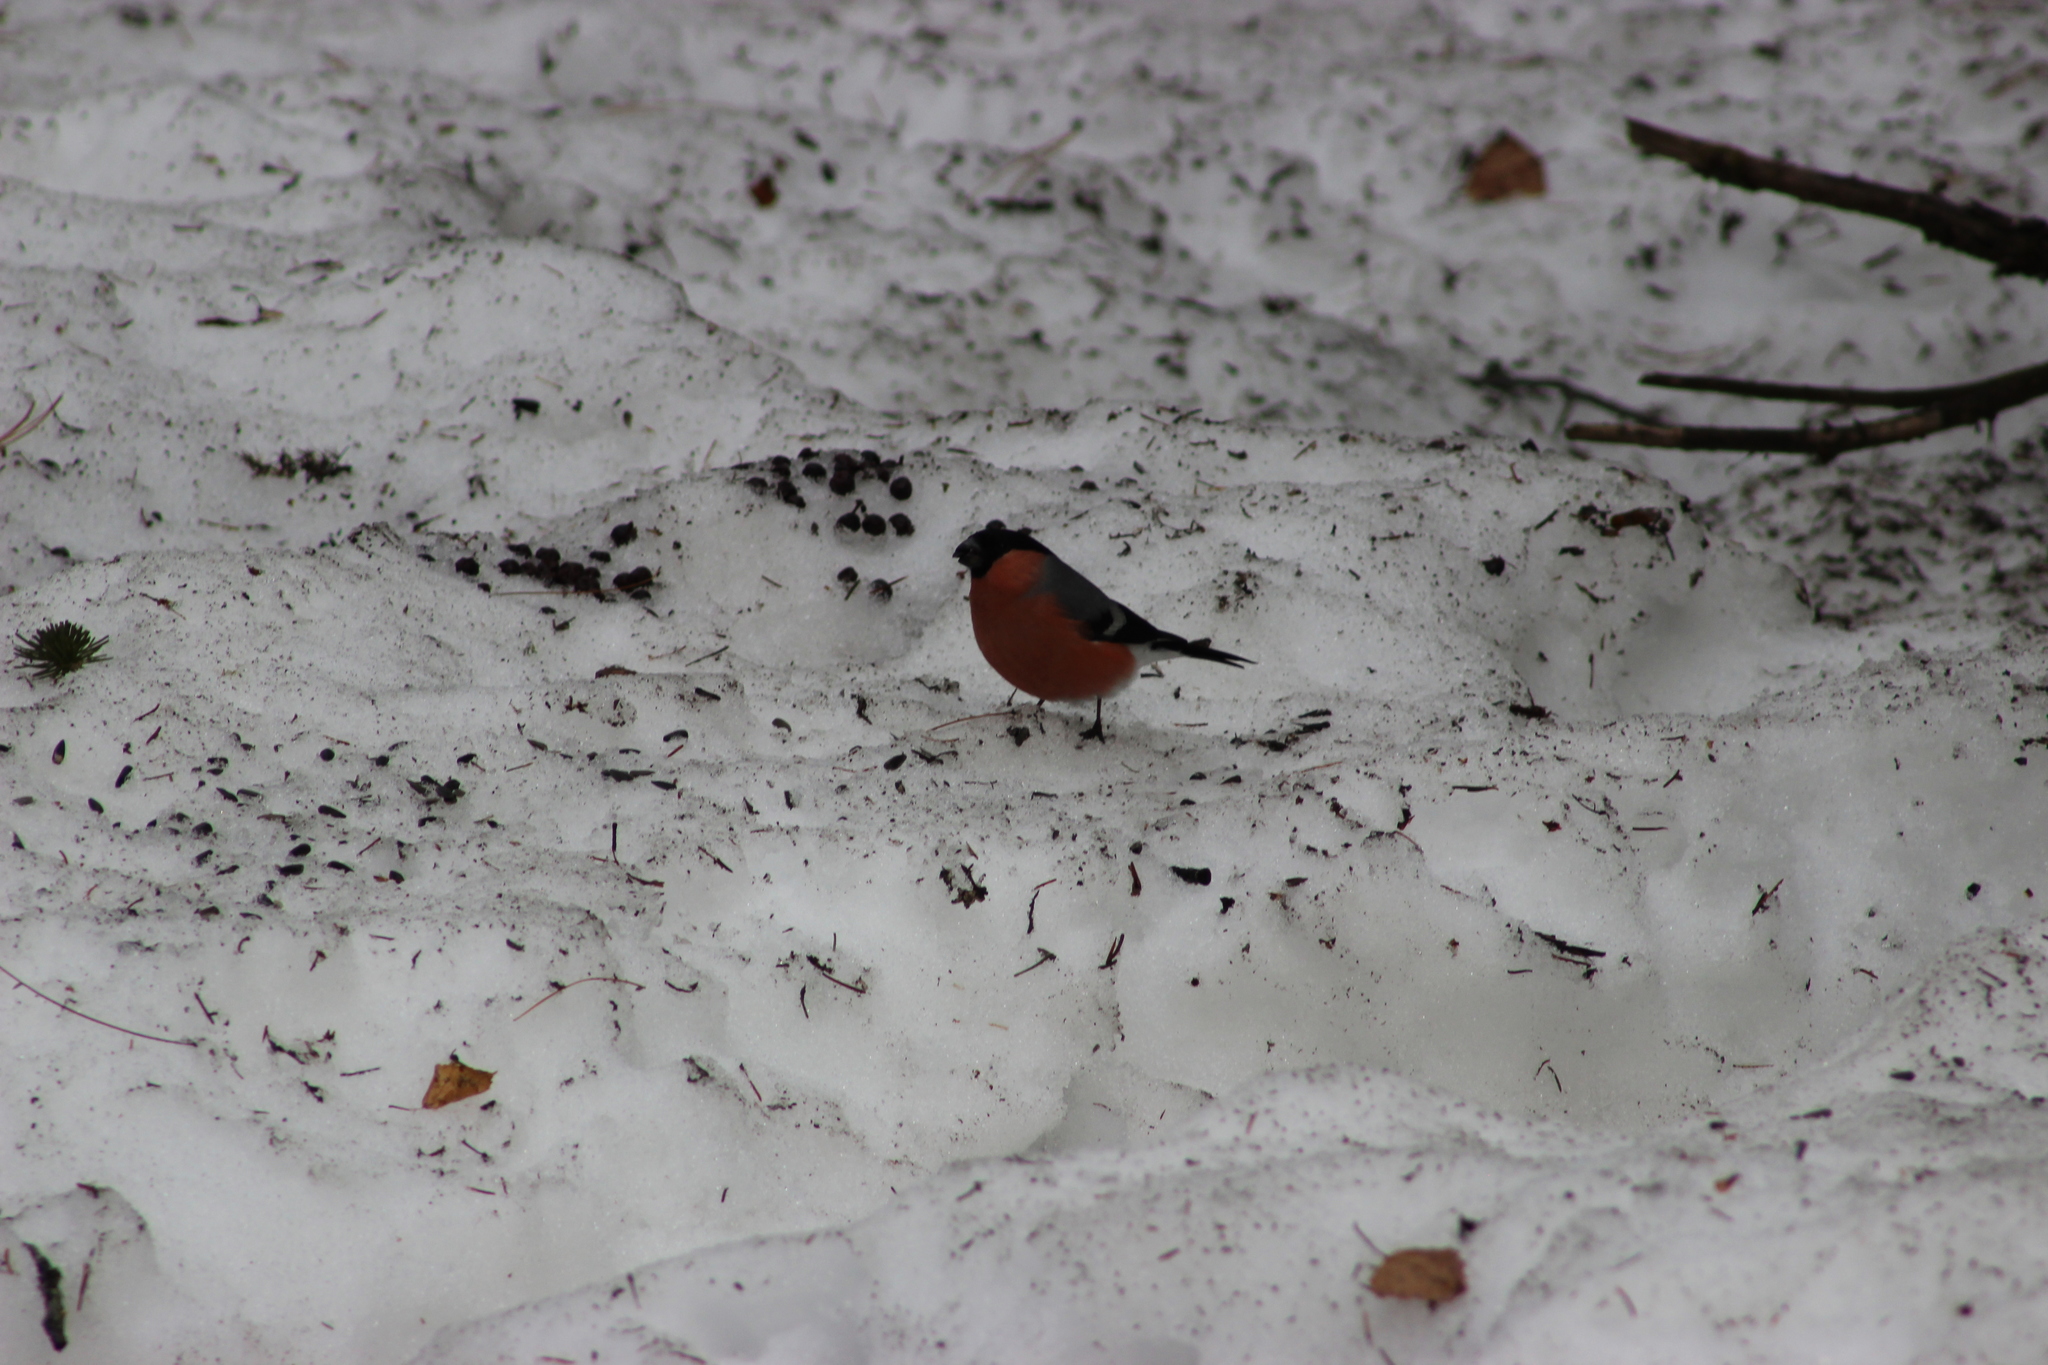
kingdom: Animalia
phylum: Chordata
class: Aves
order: Passeriformes
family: Fringillidae
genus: Pyrrhula
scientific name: Pyrrhula pyrrhula
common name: Eurasian bullfinch
